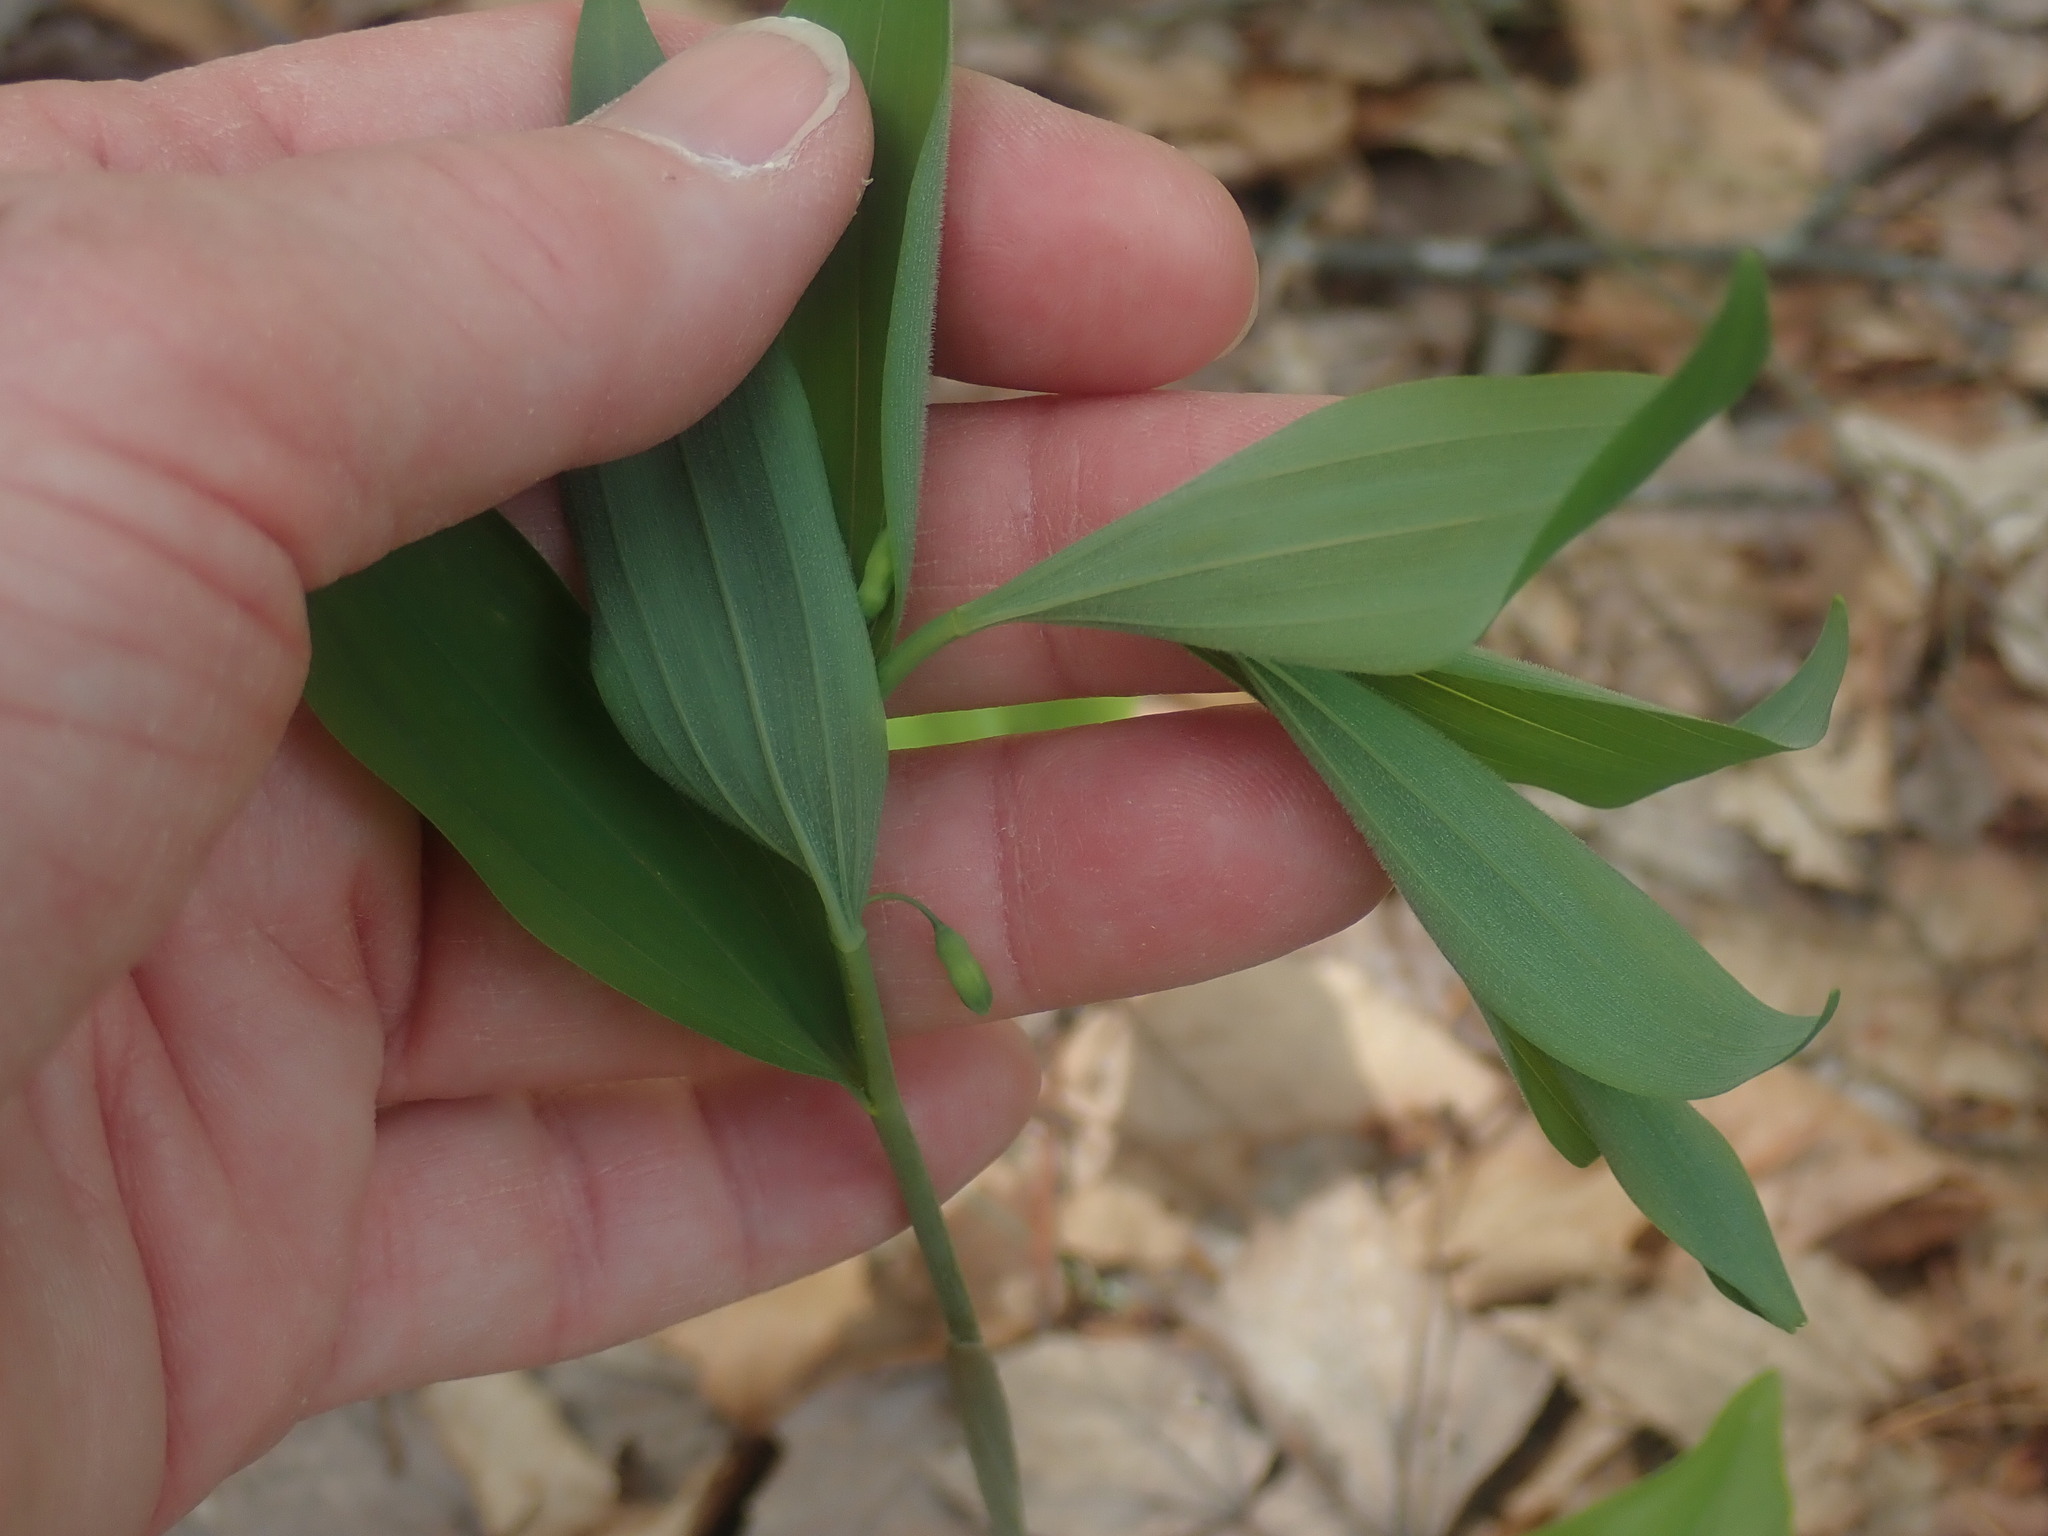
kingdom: Plantae
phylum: Tracheophyta
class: Liliopsida
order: Asparagales
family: Asparagaceae
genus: Polygonatum
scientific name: Polygonatum pubescens
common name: Downy solomon's seal
